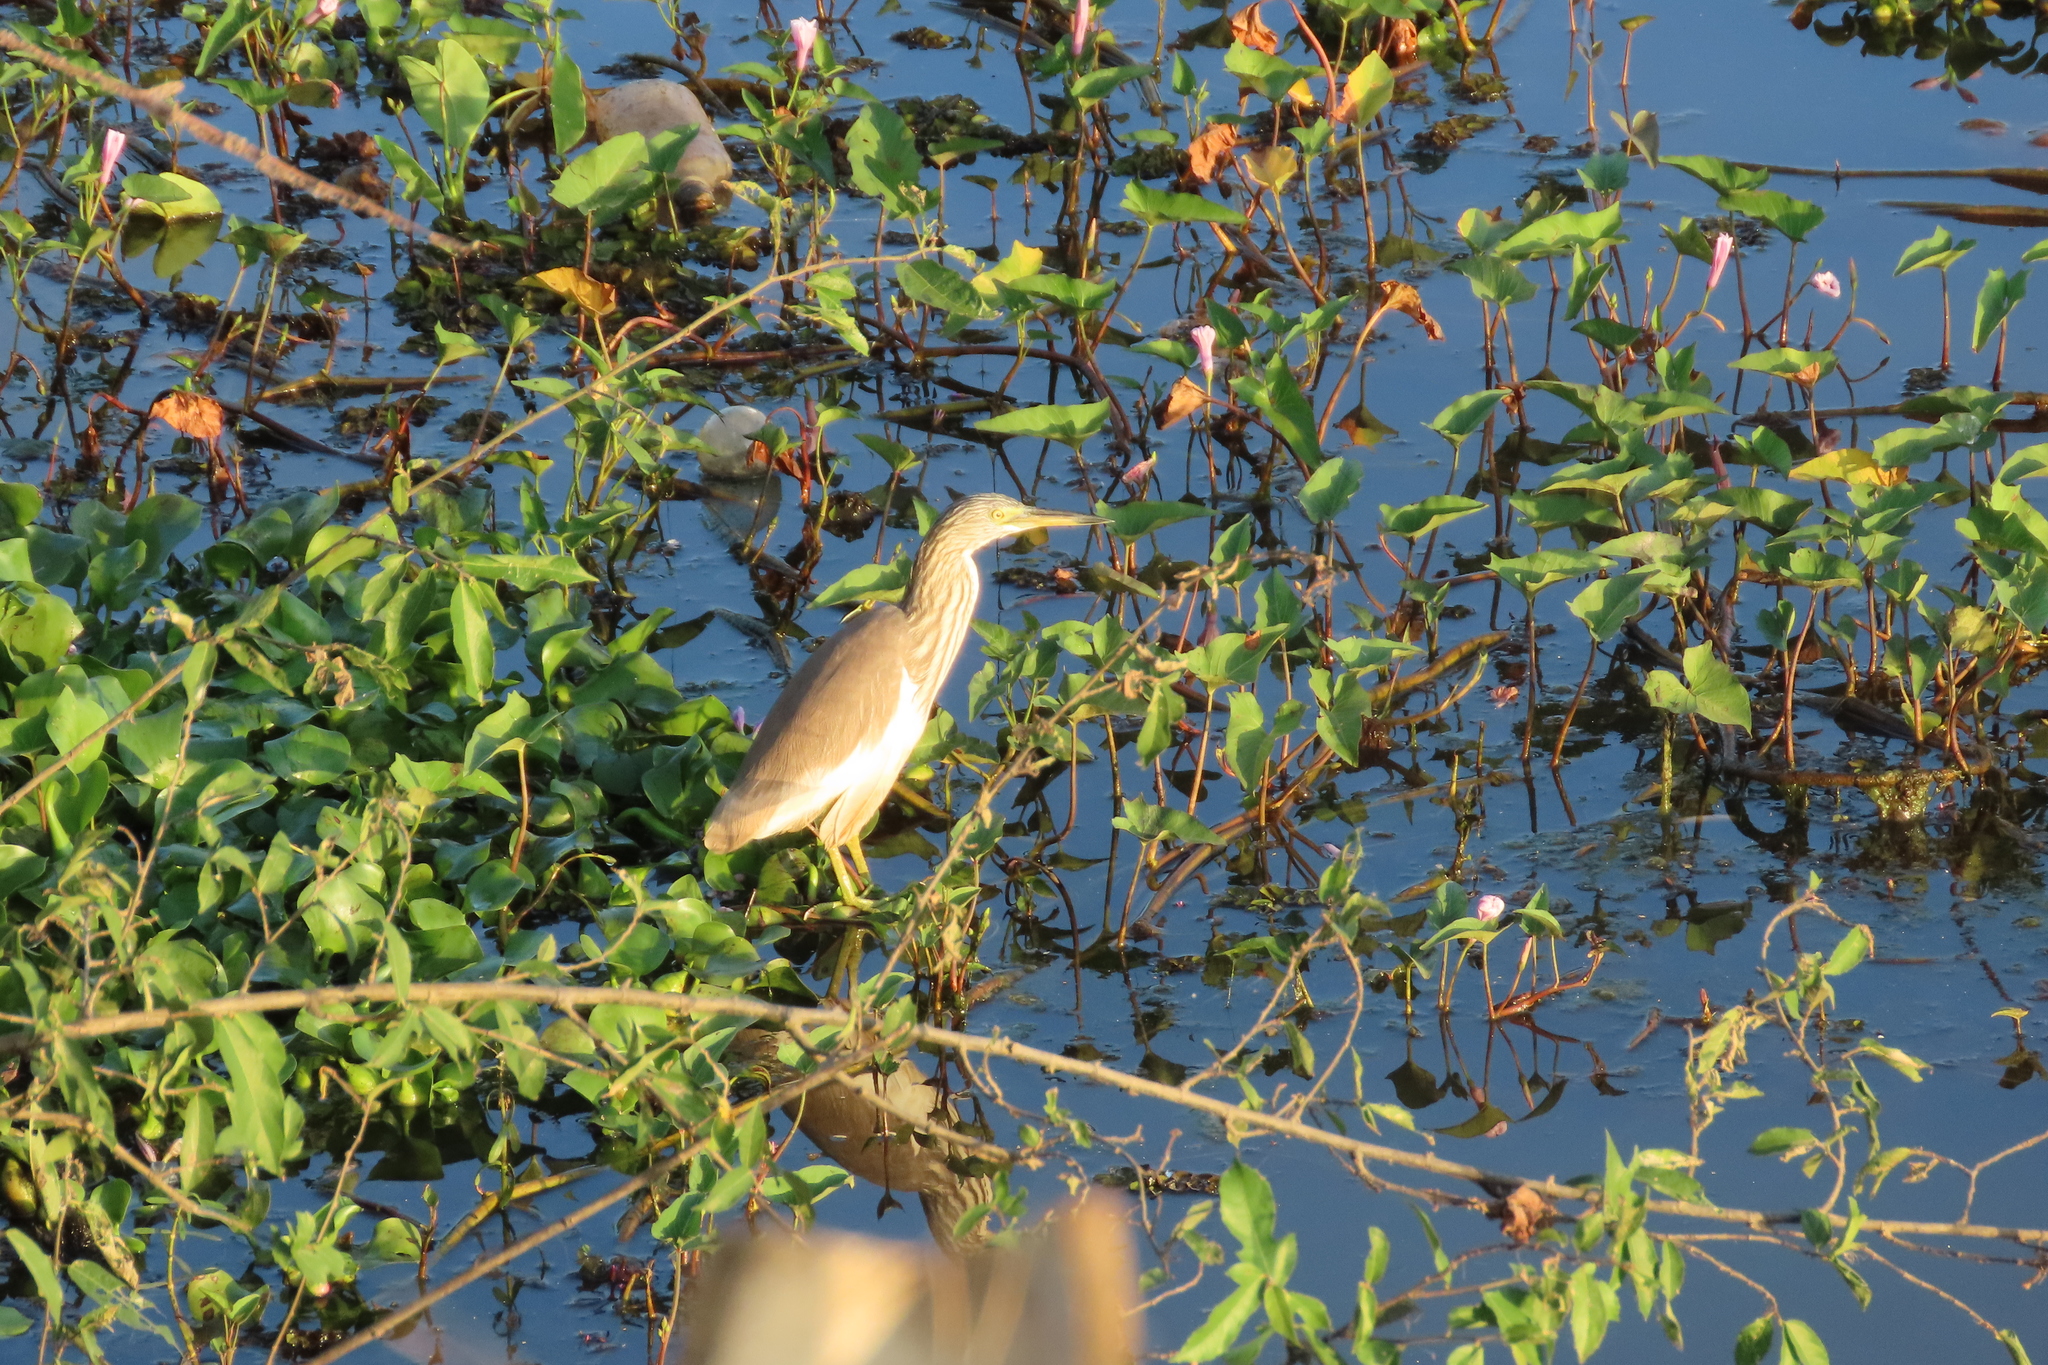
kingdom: Animalia
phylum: Chordata
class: Aves
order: Pelecaniformes
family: Ardeidae
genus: Ardeola
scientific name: Ardeola grayii
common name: Indian pond heron
